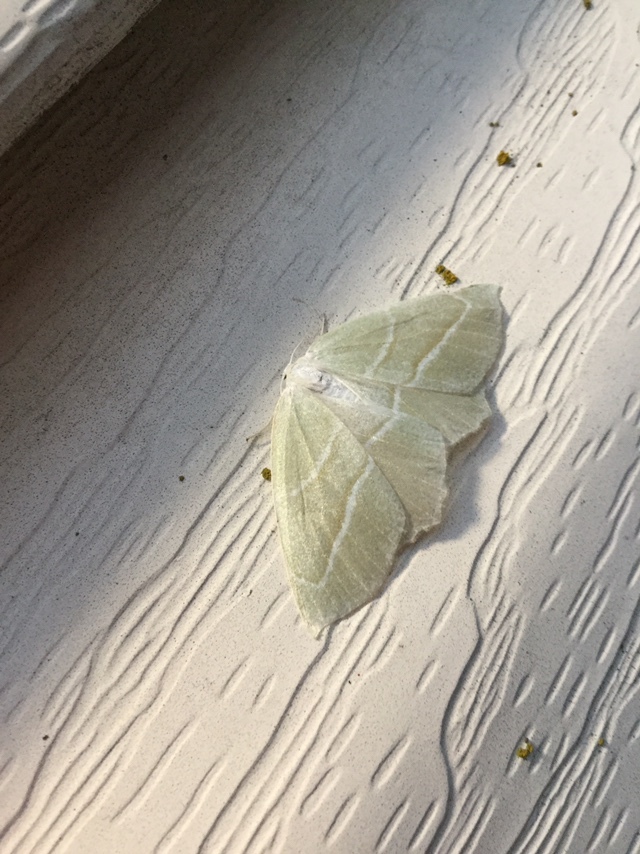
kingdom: Animalia
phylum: Arthropoda
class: Insecta
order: Lepidoptera
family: Geometridae
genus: Campaea
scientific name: Campaea perlata
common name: Fringed looper
